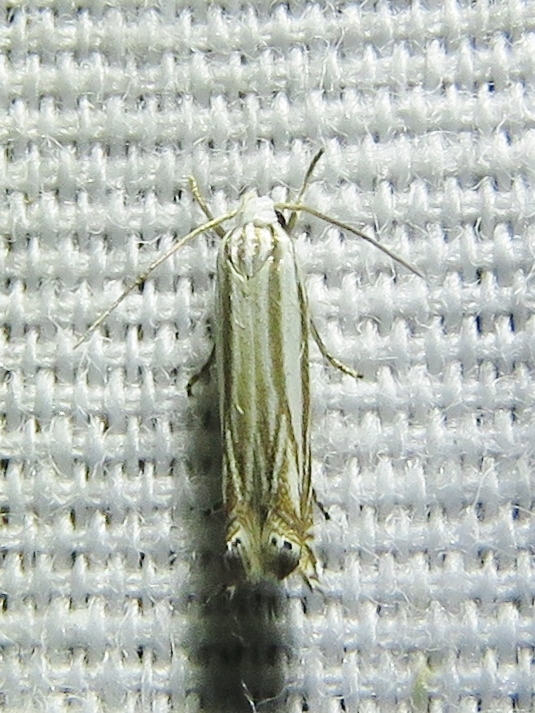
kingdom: Animalia
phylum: Arthropoda
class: Insecta
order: Lepidoptera
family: Gelechiidae
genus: Polyhymno
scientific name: Polyhymno luteostrigella
